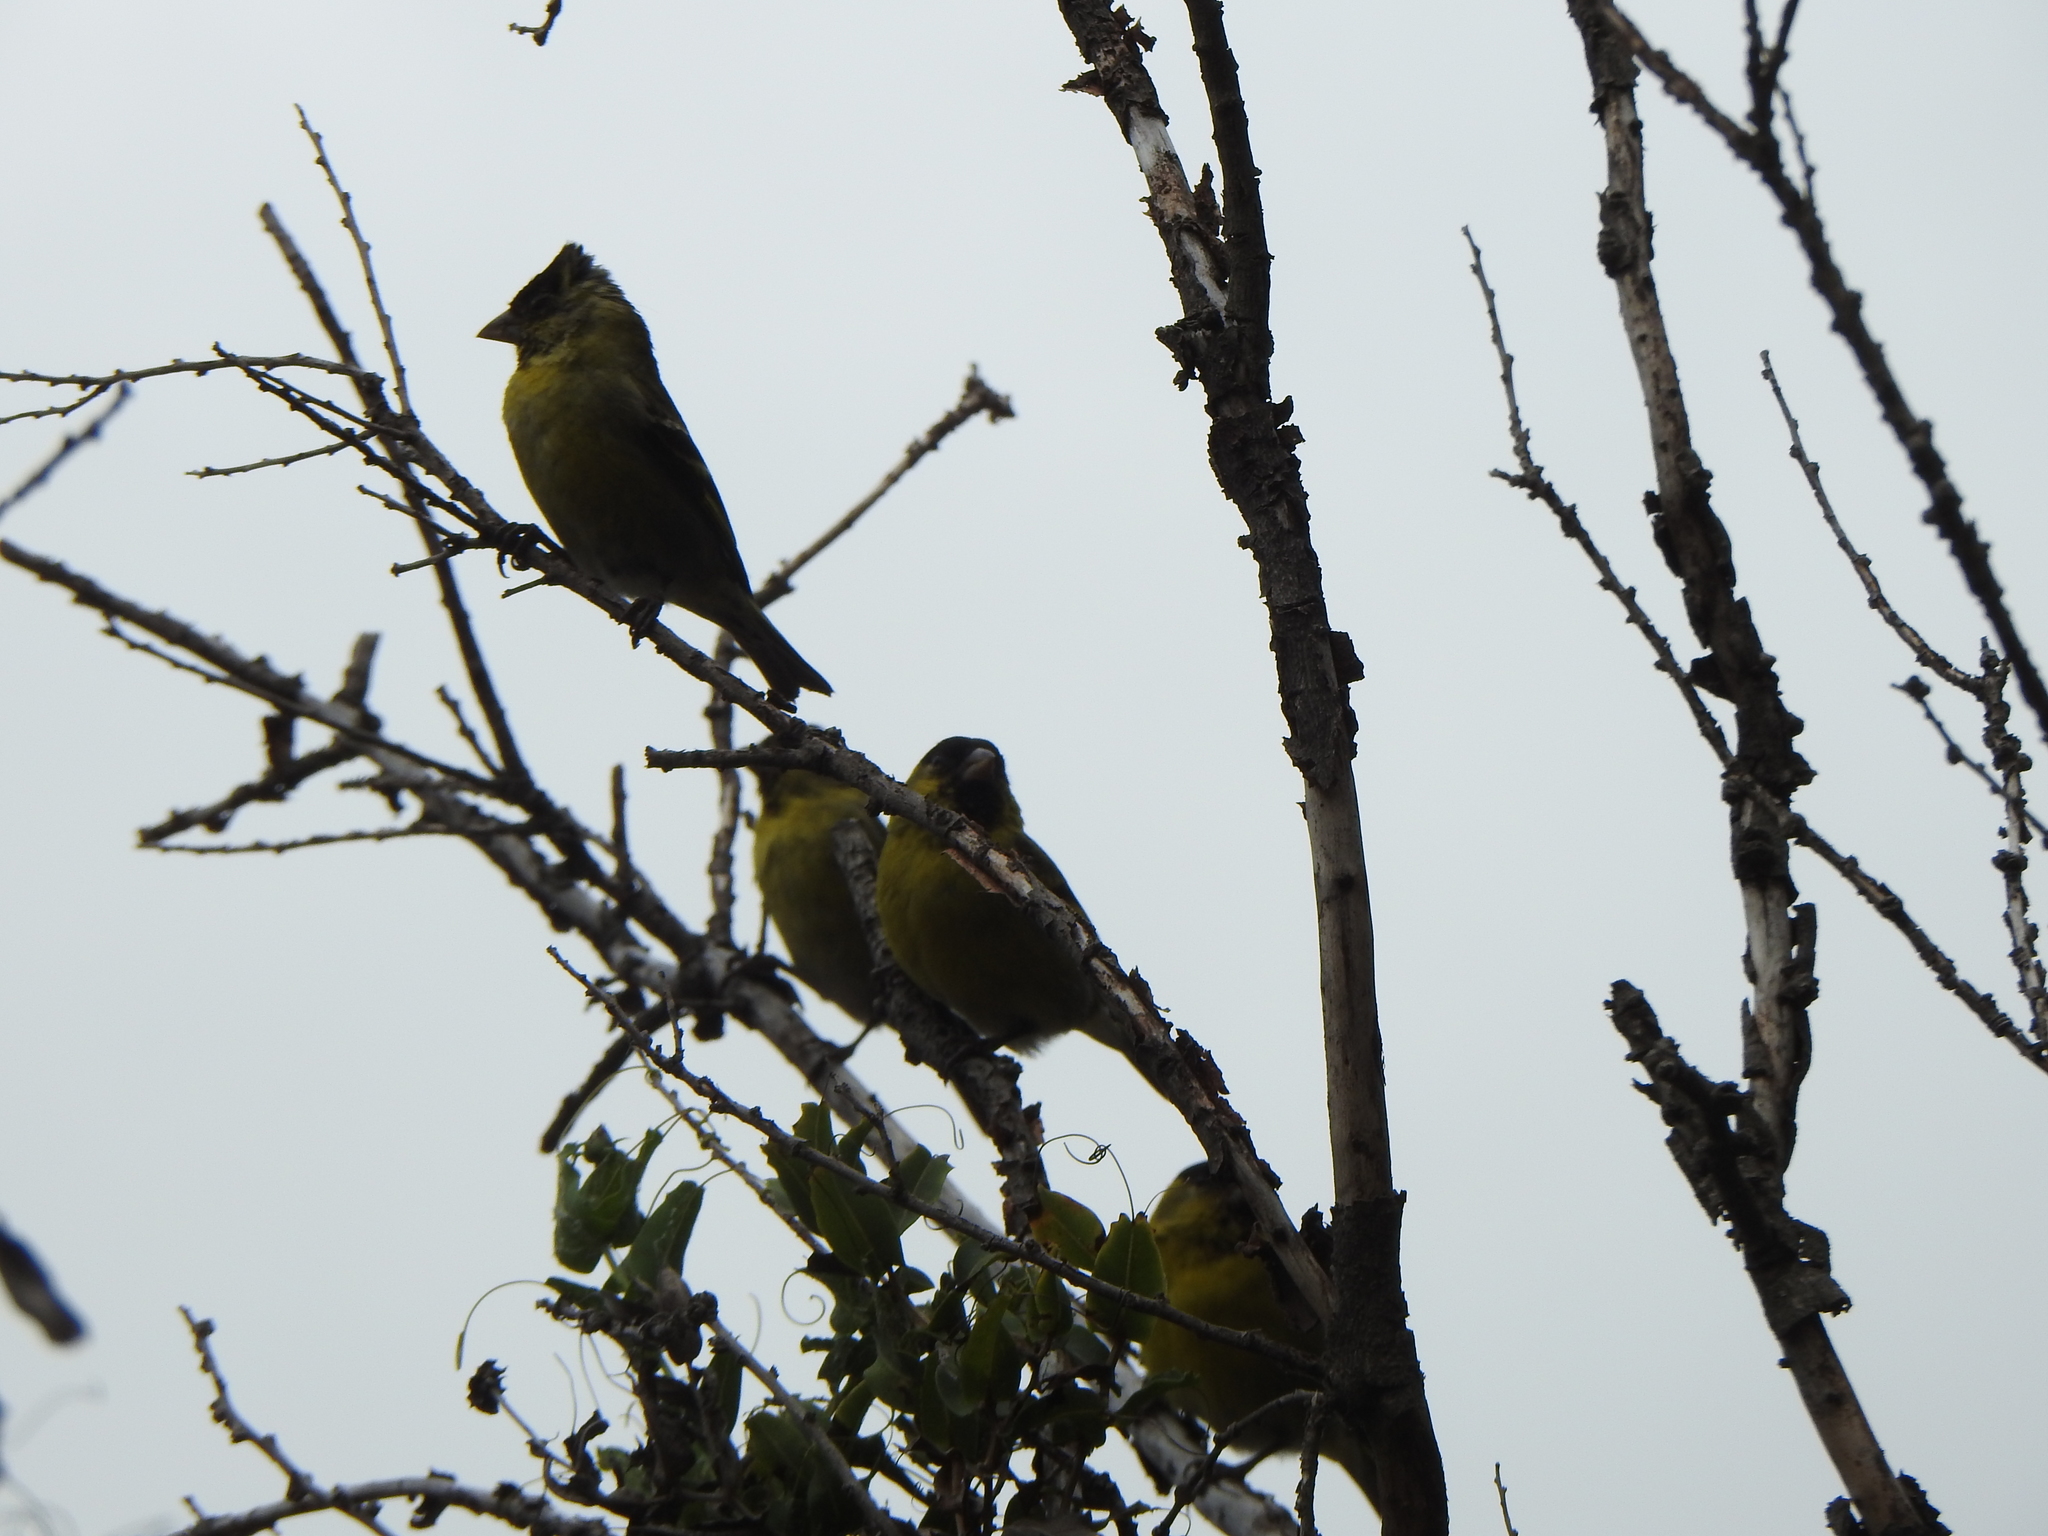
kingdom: Animalia
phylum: Chordata
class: Aves
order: Passeriformes
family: Fringillidae
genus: Spinus
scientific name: Spinus barbatus
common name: Black-chinned siskin
